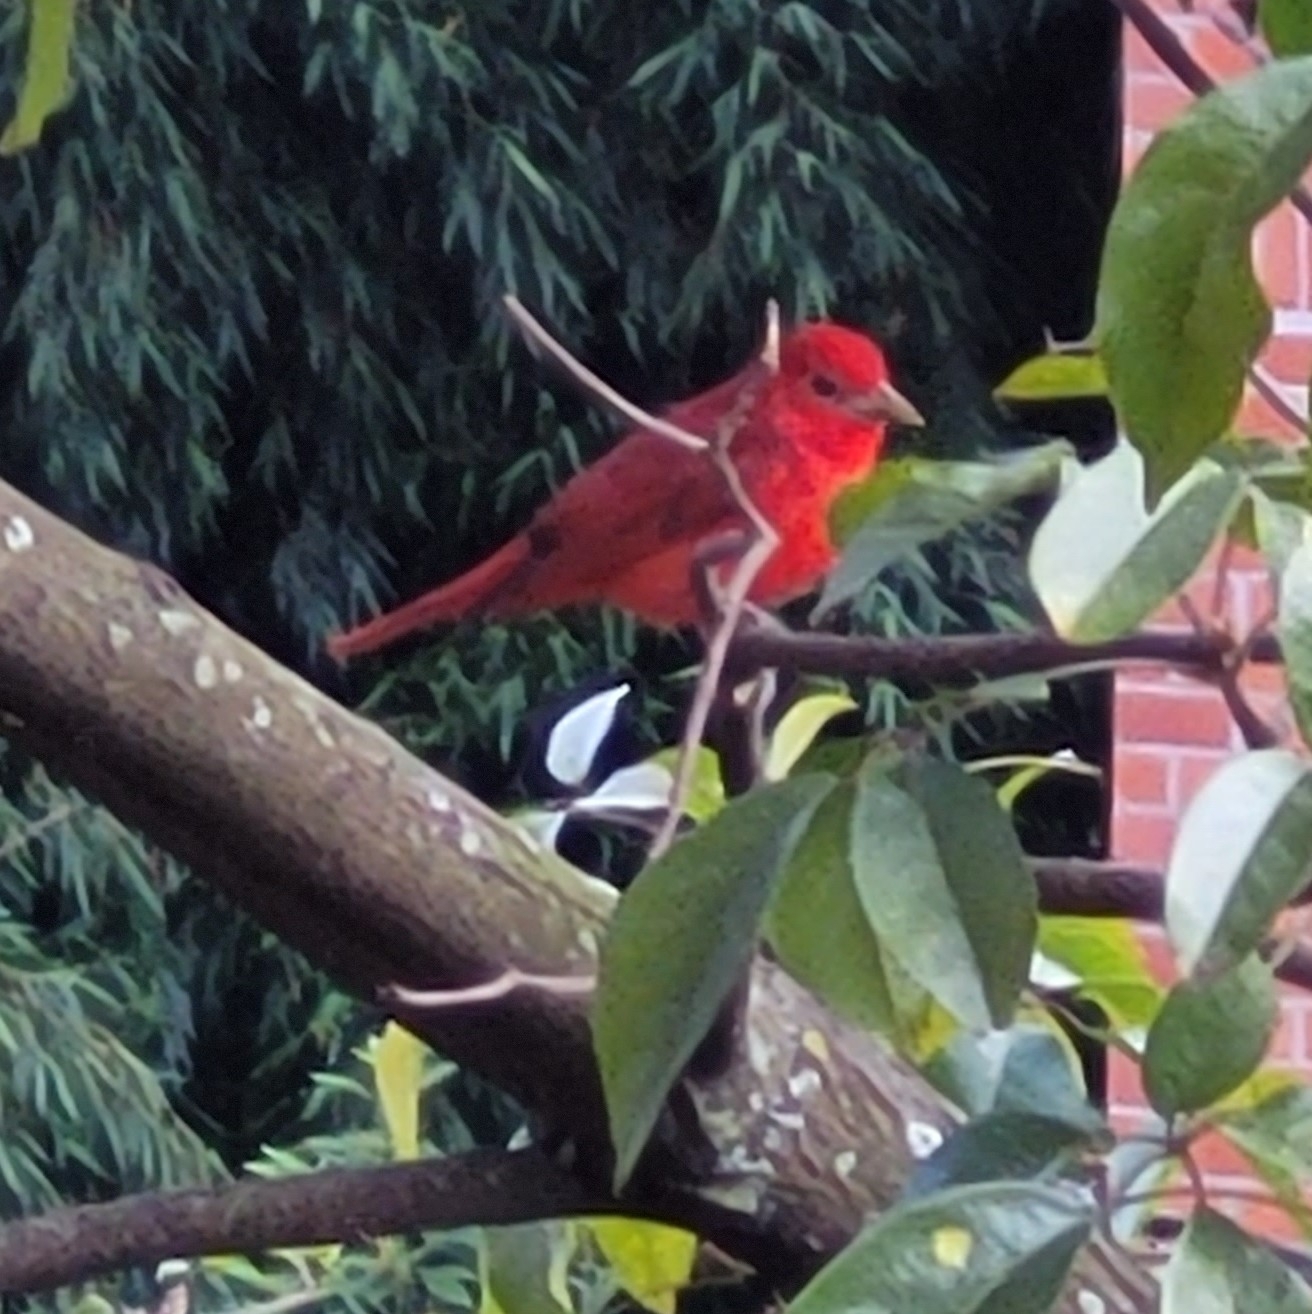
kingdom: Animalia
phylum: Chordata
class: Aves
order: Passeriformes
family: Cardinalidae
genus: Piranga
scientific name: Piranga rubra
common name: Summer tanager
